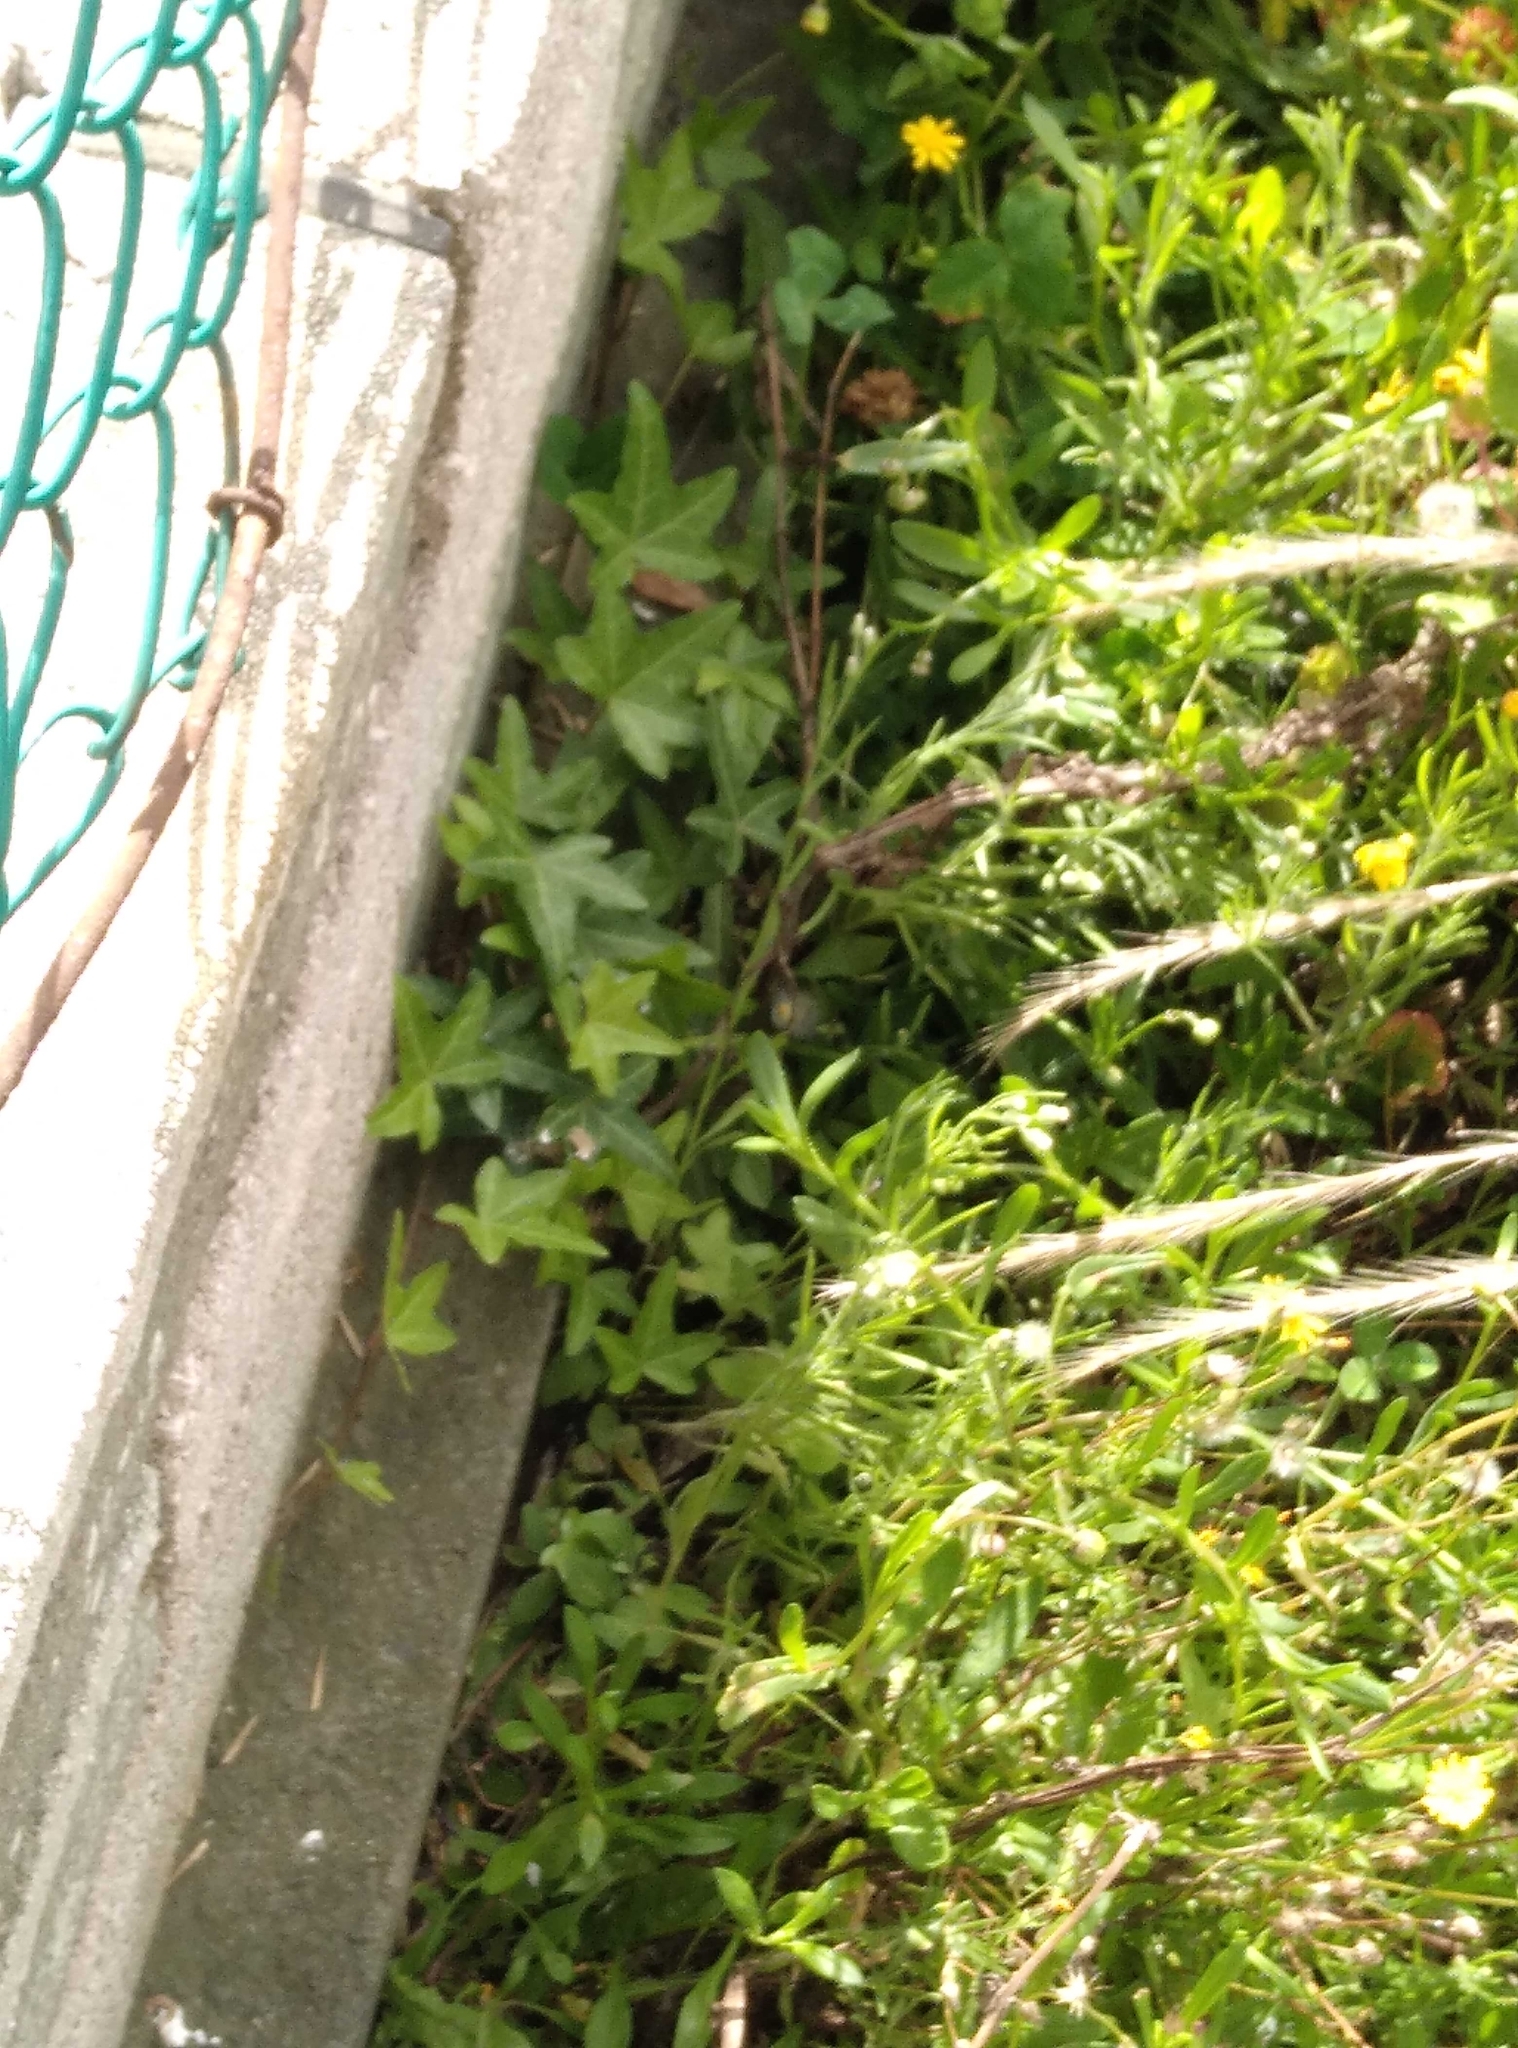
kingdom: Plantae
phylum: Tracheophyta
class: Magnoliopsida
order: Apiales
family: Araliaceae
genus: Hedera
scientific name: Hedera helix
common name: Ivy
